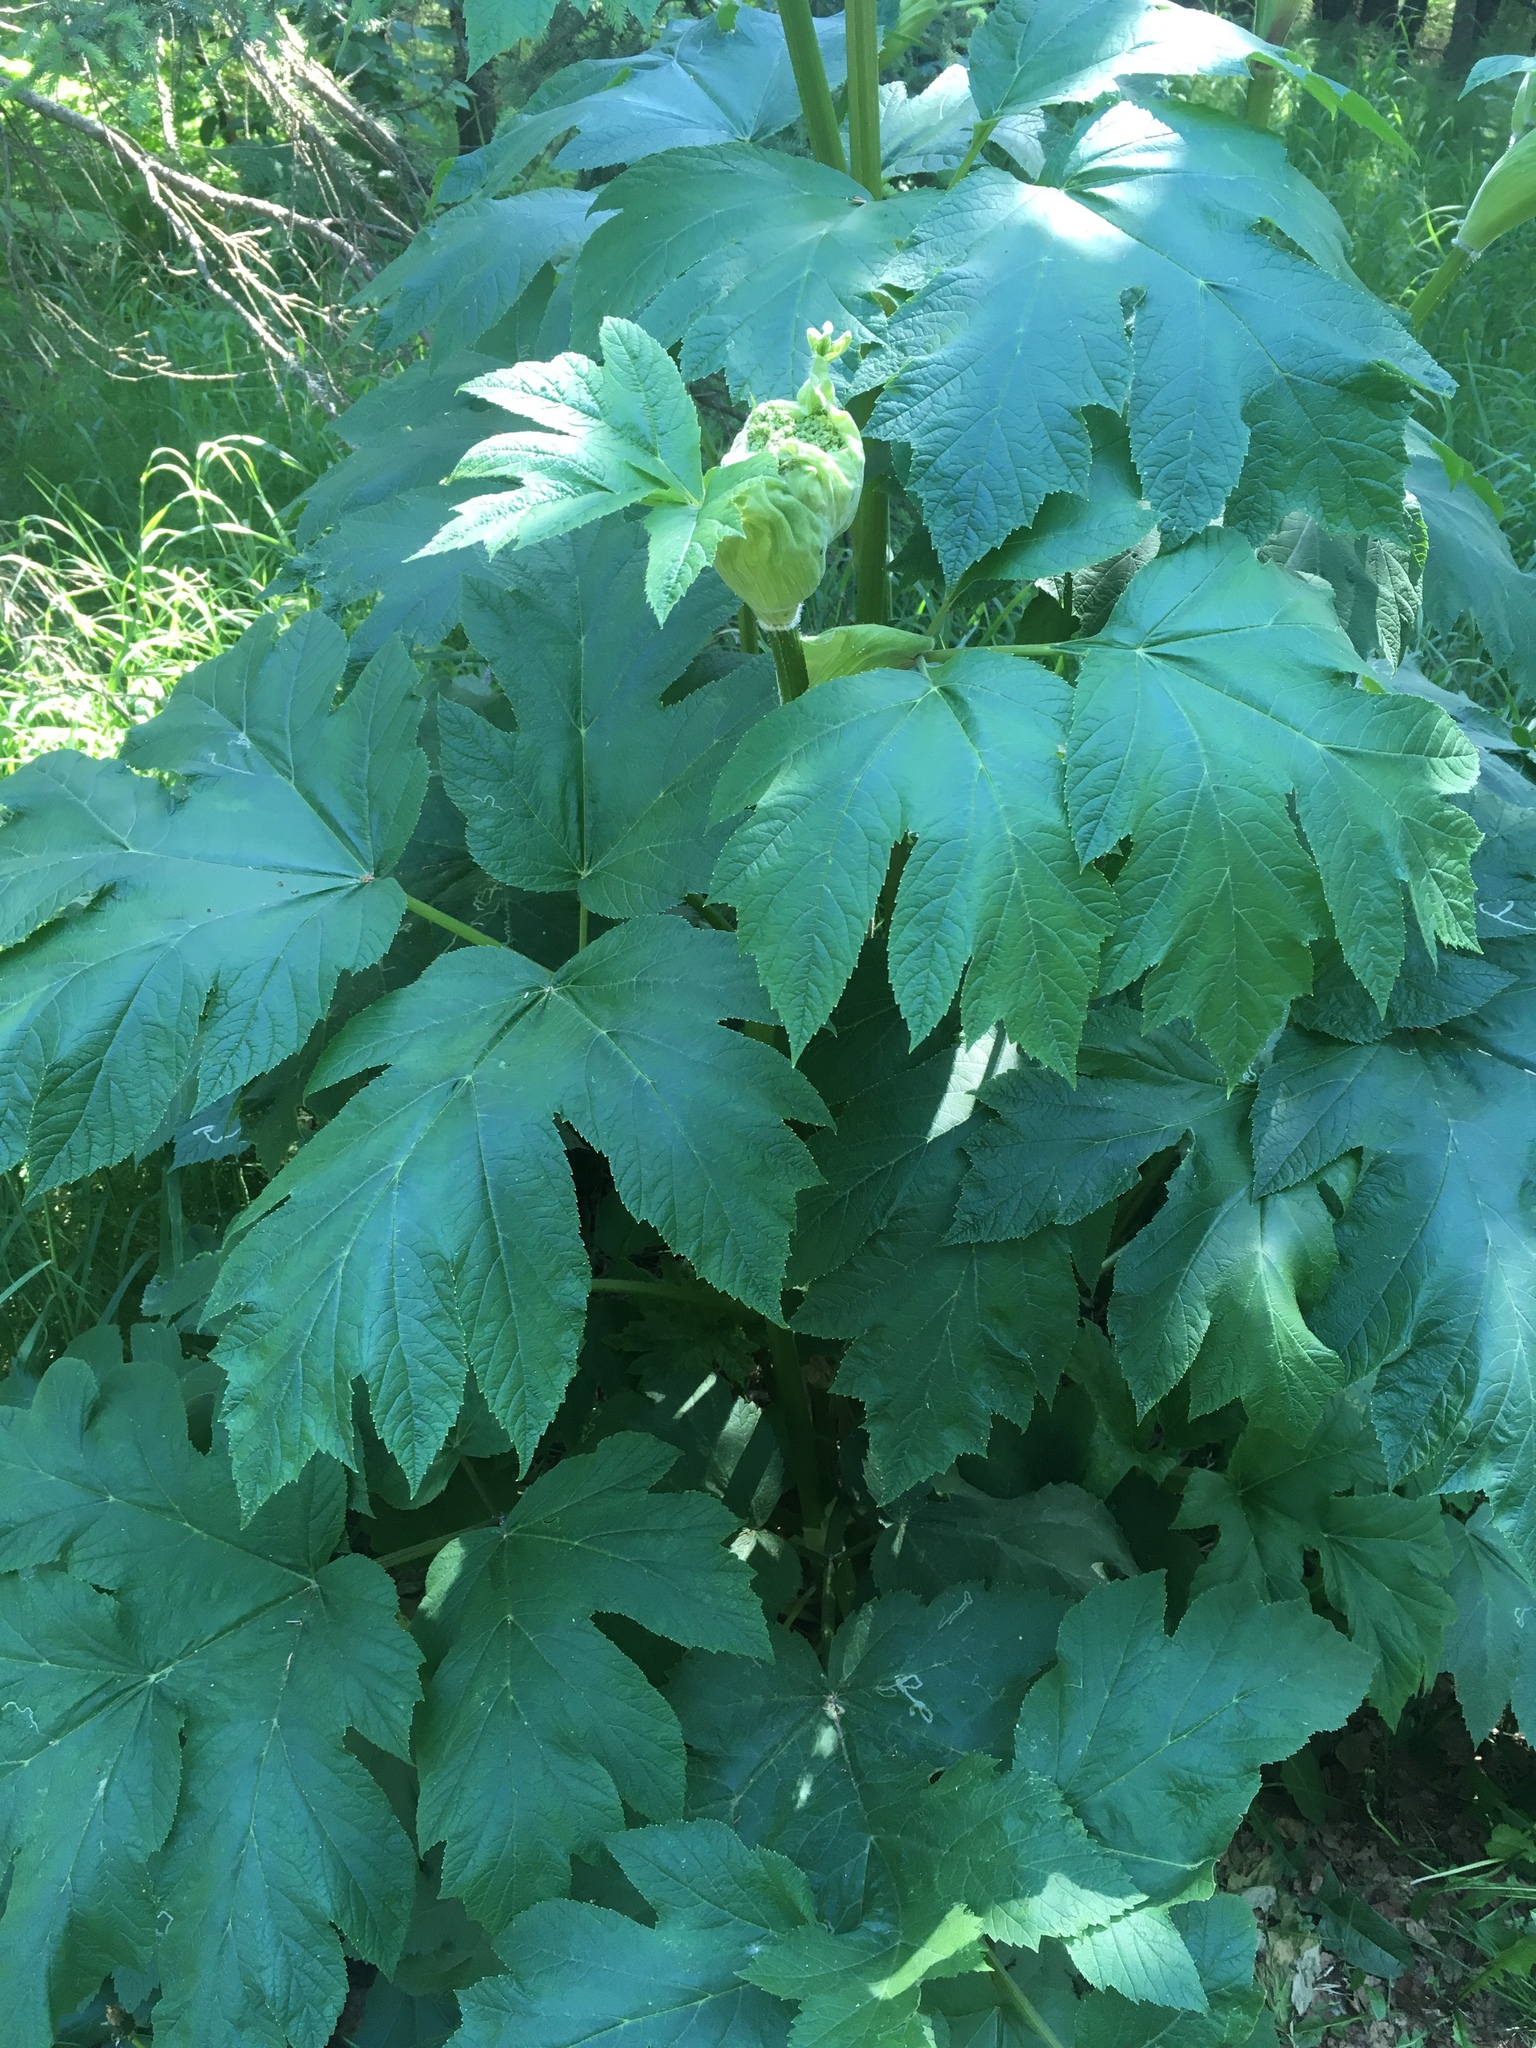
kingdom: Plantae
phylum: Tracheophyta
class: Magnoliopsida
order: Apiales
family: Apiaceae
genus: Heracleum
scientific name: Heracleum maximum
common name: American cow parsnip
